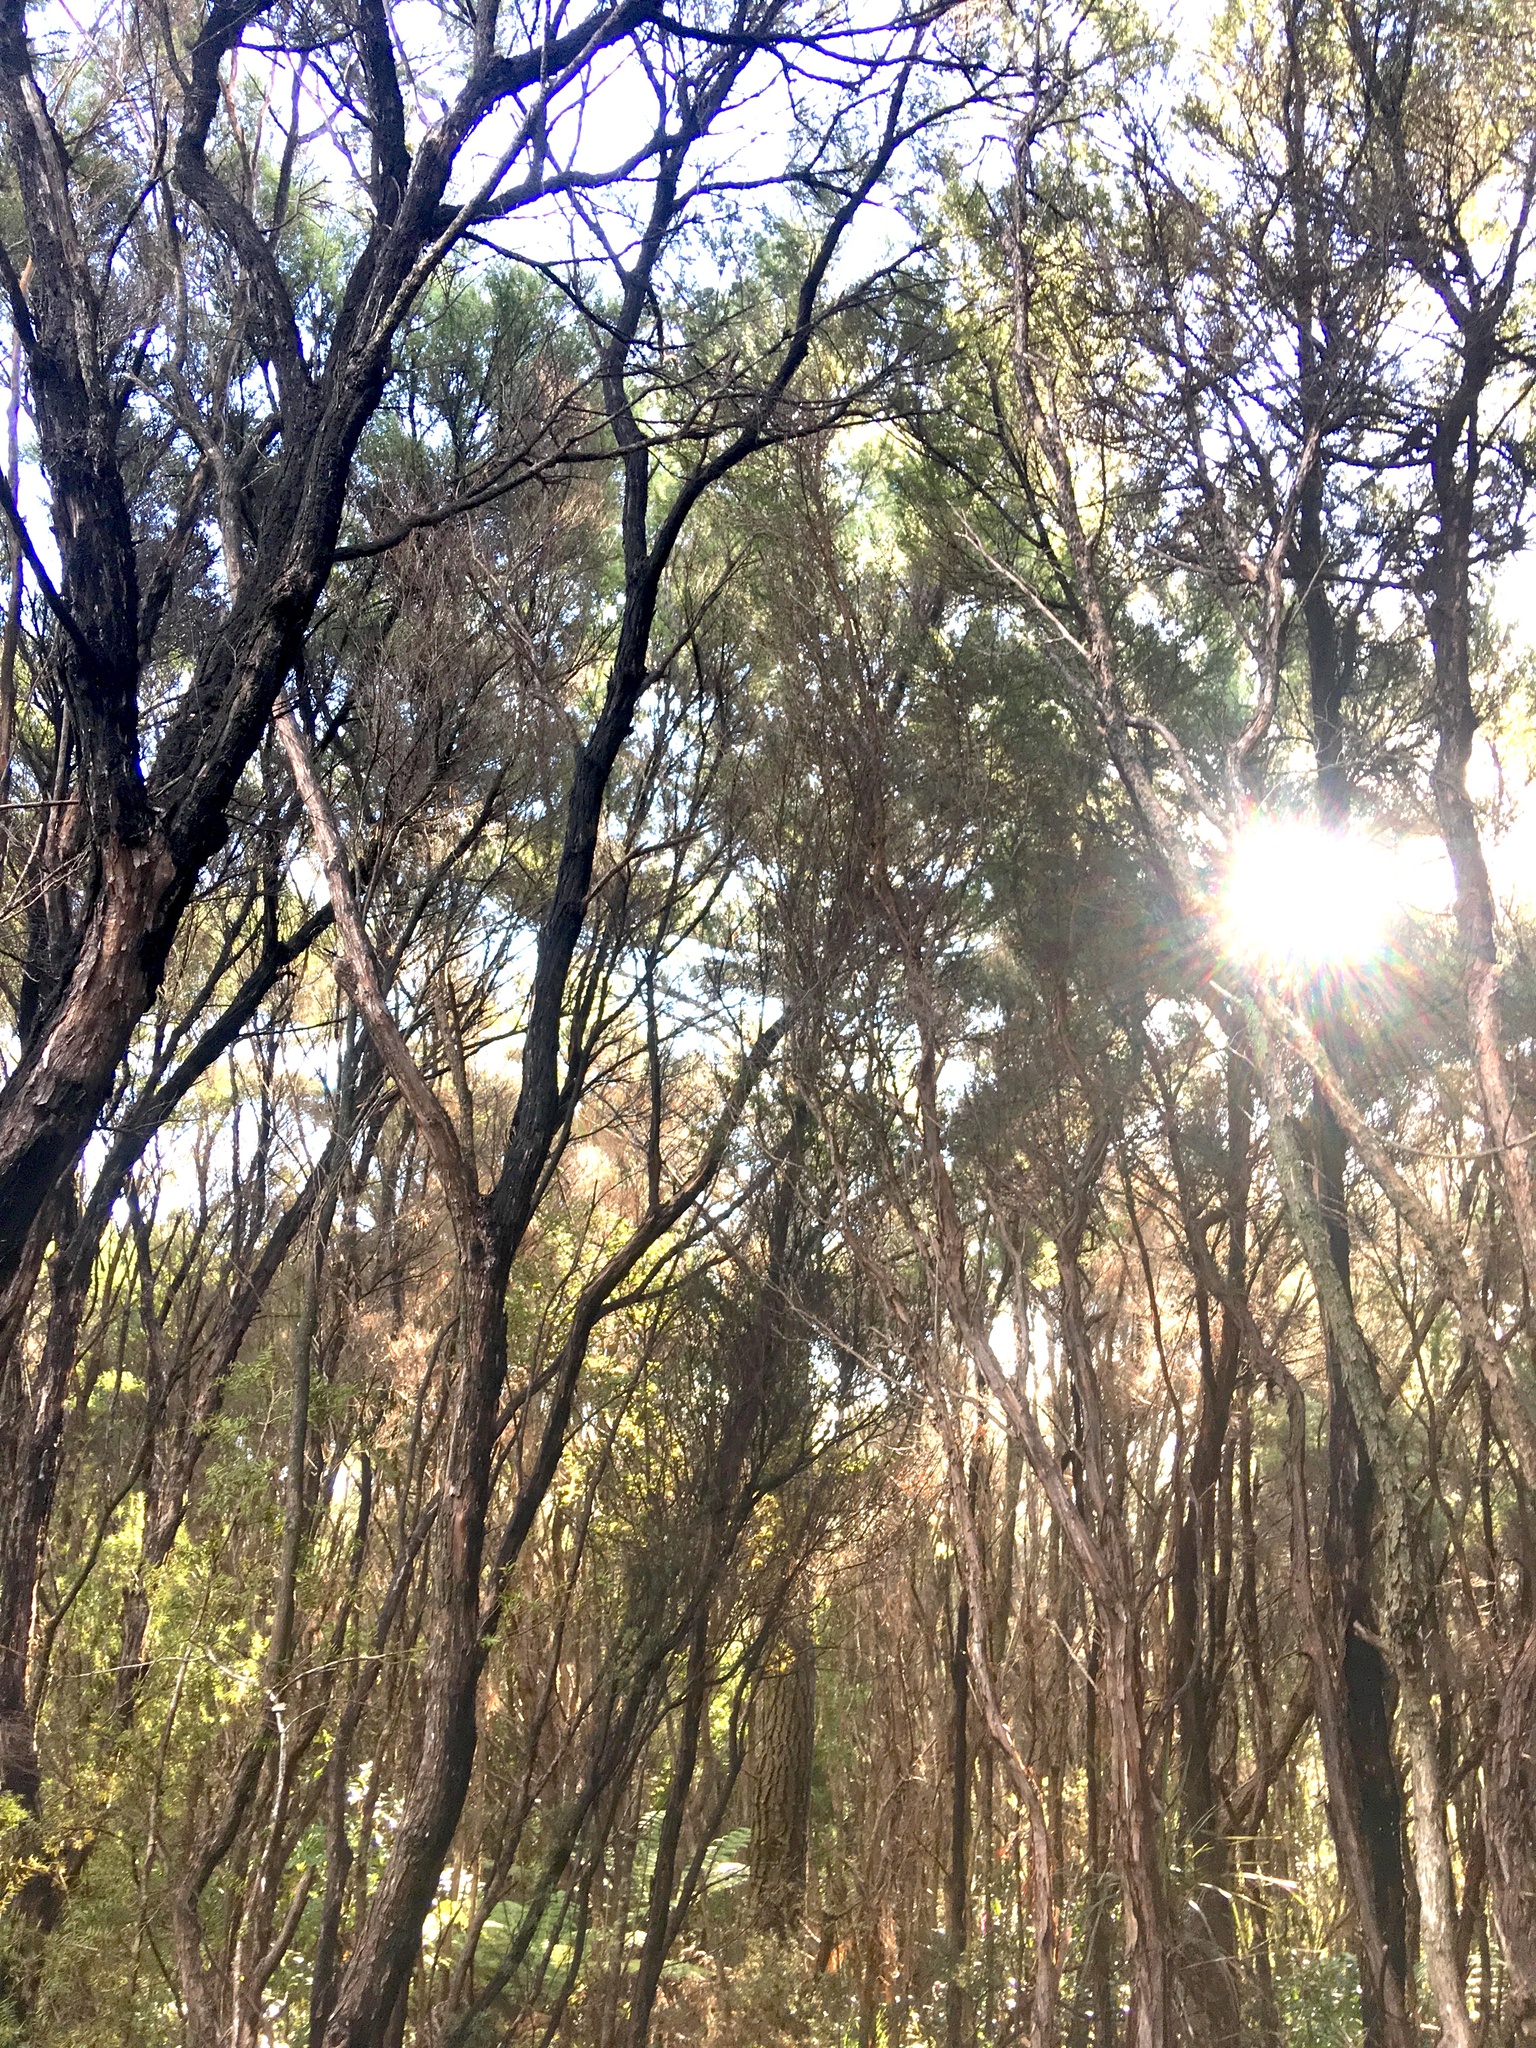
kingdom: Plantae
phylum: Tracheophyta
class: Magnoliopsida
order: Myrtales
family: Myrtaceae
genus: Leptospermum
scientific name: Leptospermum scoparium
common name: Broom tea-tree
